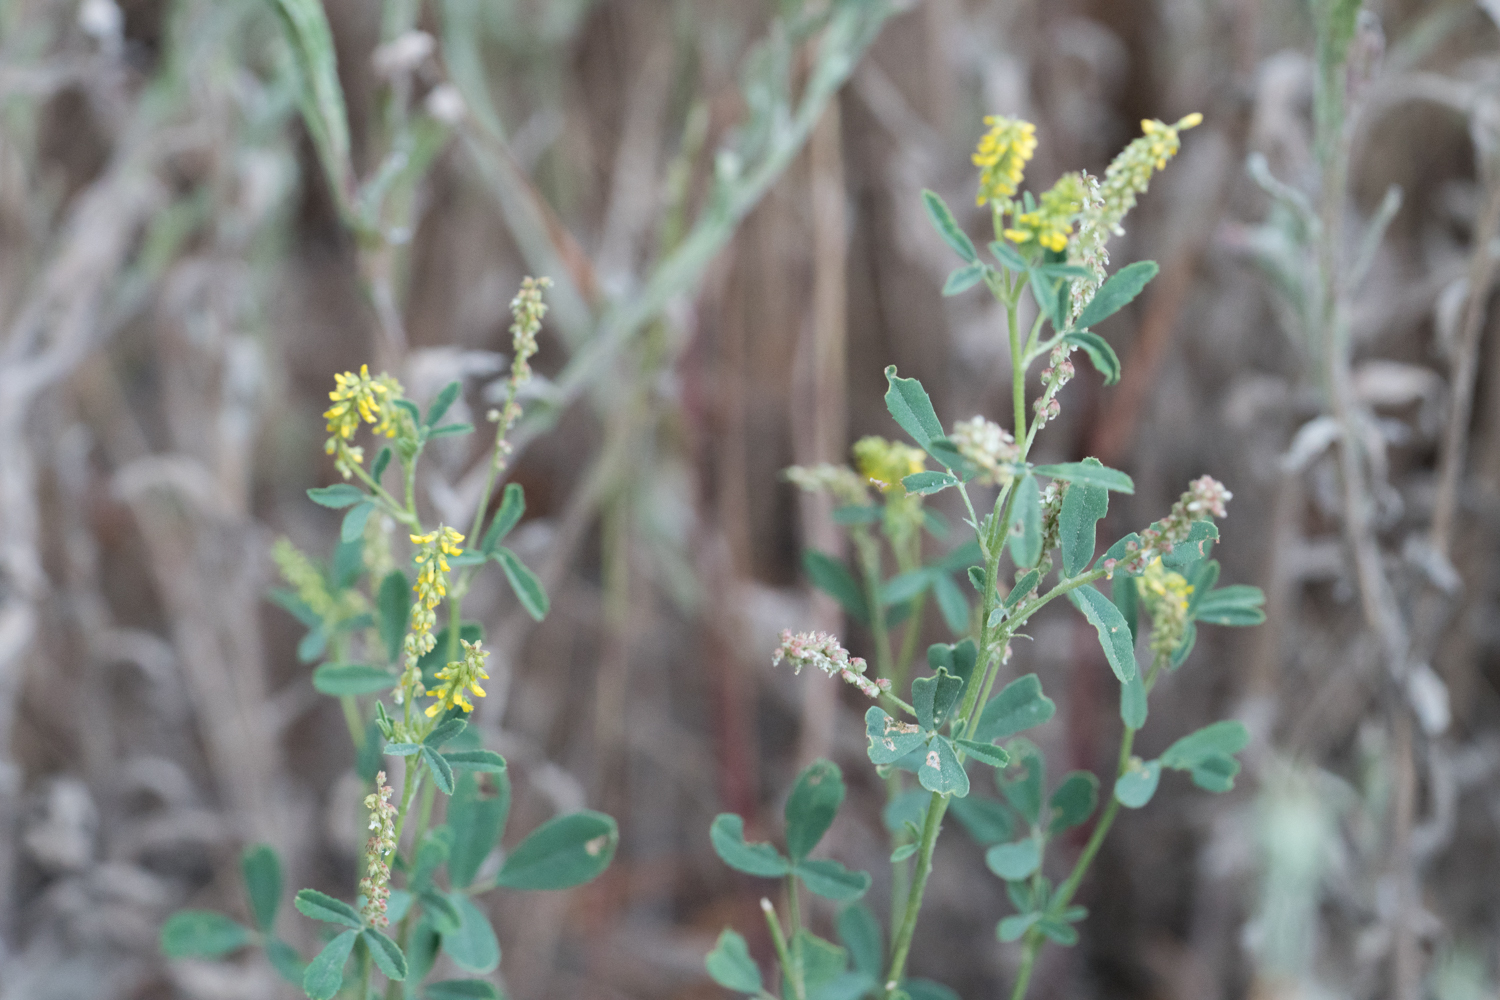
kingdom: Plantae
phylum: Tracheophyta
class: Magnoliopsida
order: Fabales
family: Fabaceae
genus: Melilotus
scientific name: Melilotus indicus
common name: Small melilot
